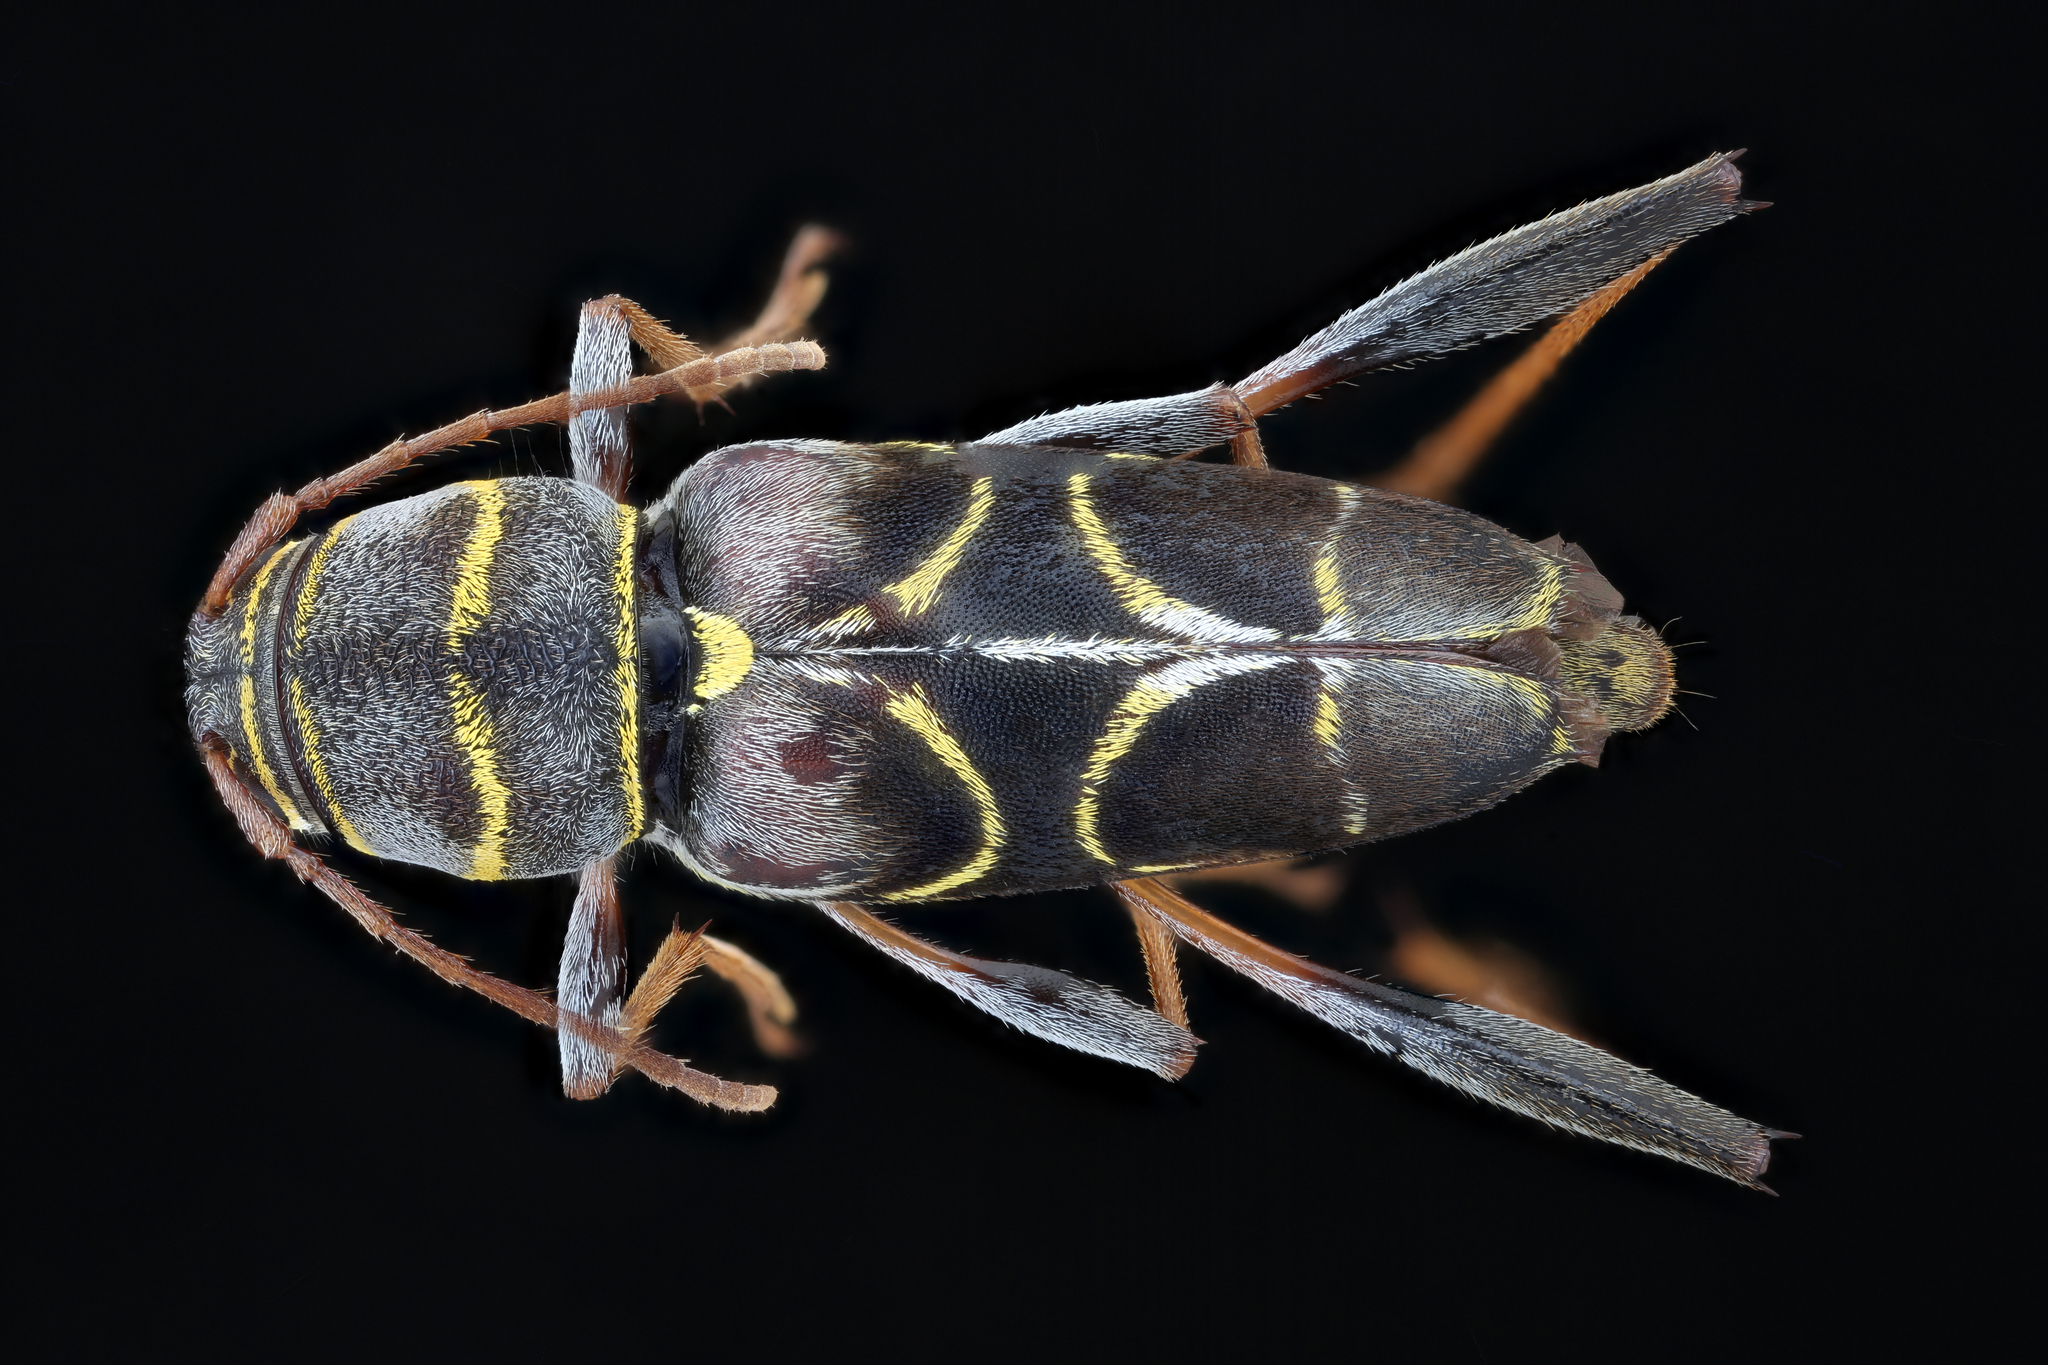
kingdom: Animalia
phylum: Arthropoda
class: Insecta
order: Coleoptera
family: Cerambycidae
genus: Neoclytus
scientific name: Neoclytus scutellaris
